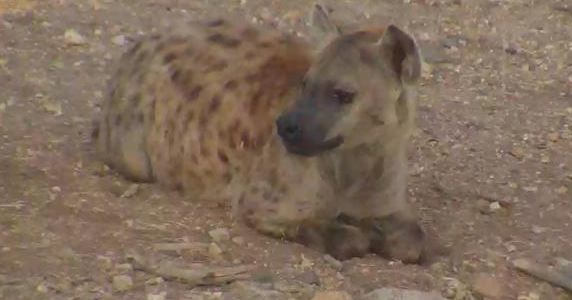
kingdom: Animalia
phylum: Chordata
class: Mammalia
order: Carnivora
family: Hyaenidae
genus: Crocuta
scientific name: Crocuta crocuta
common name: Spotted hyaena
